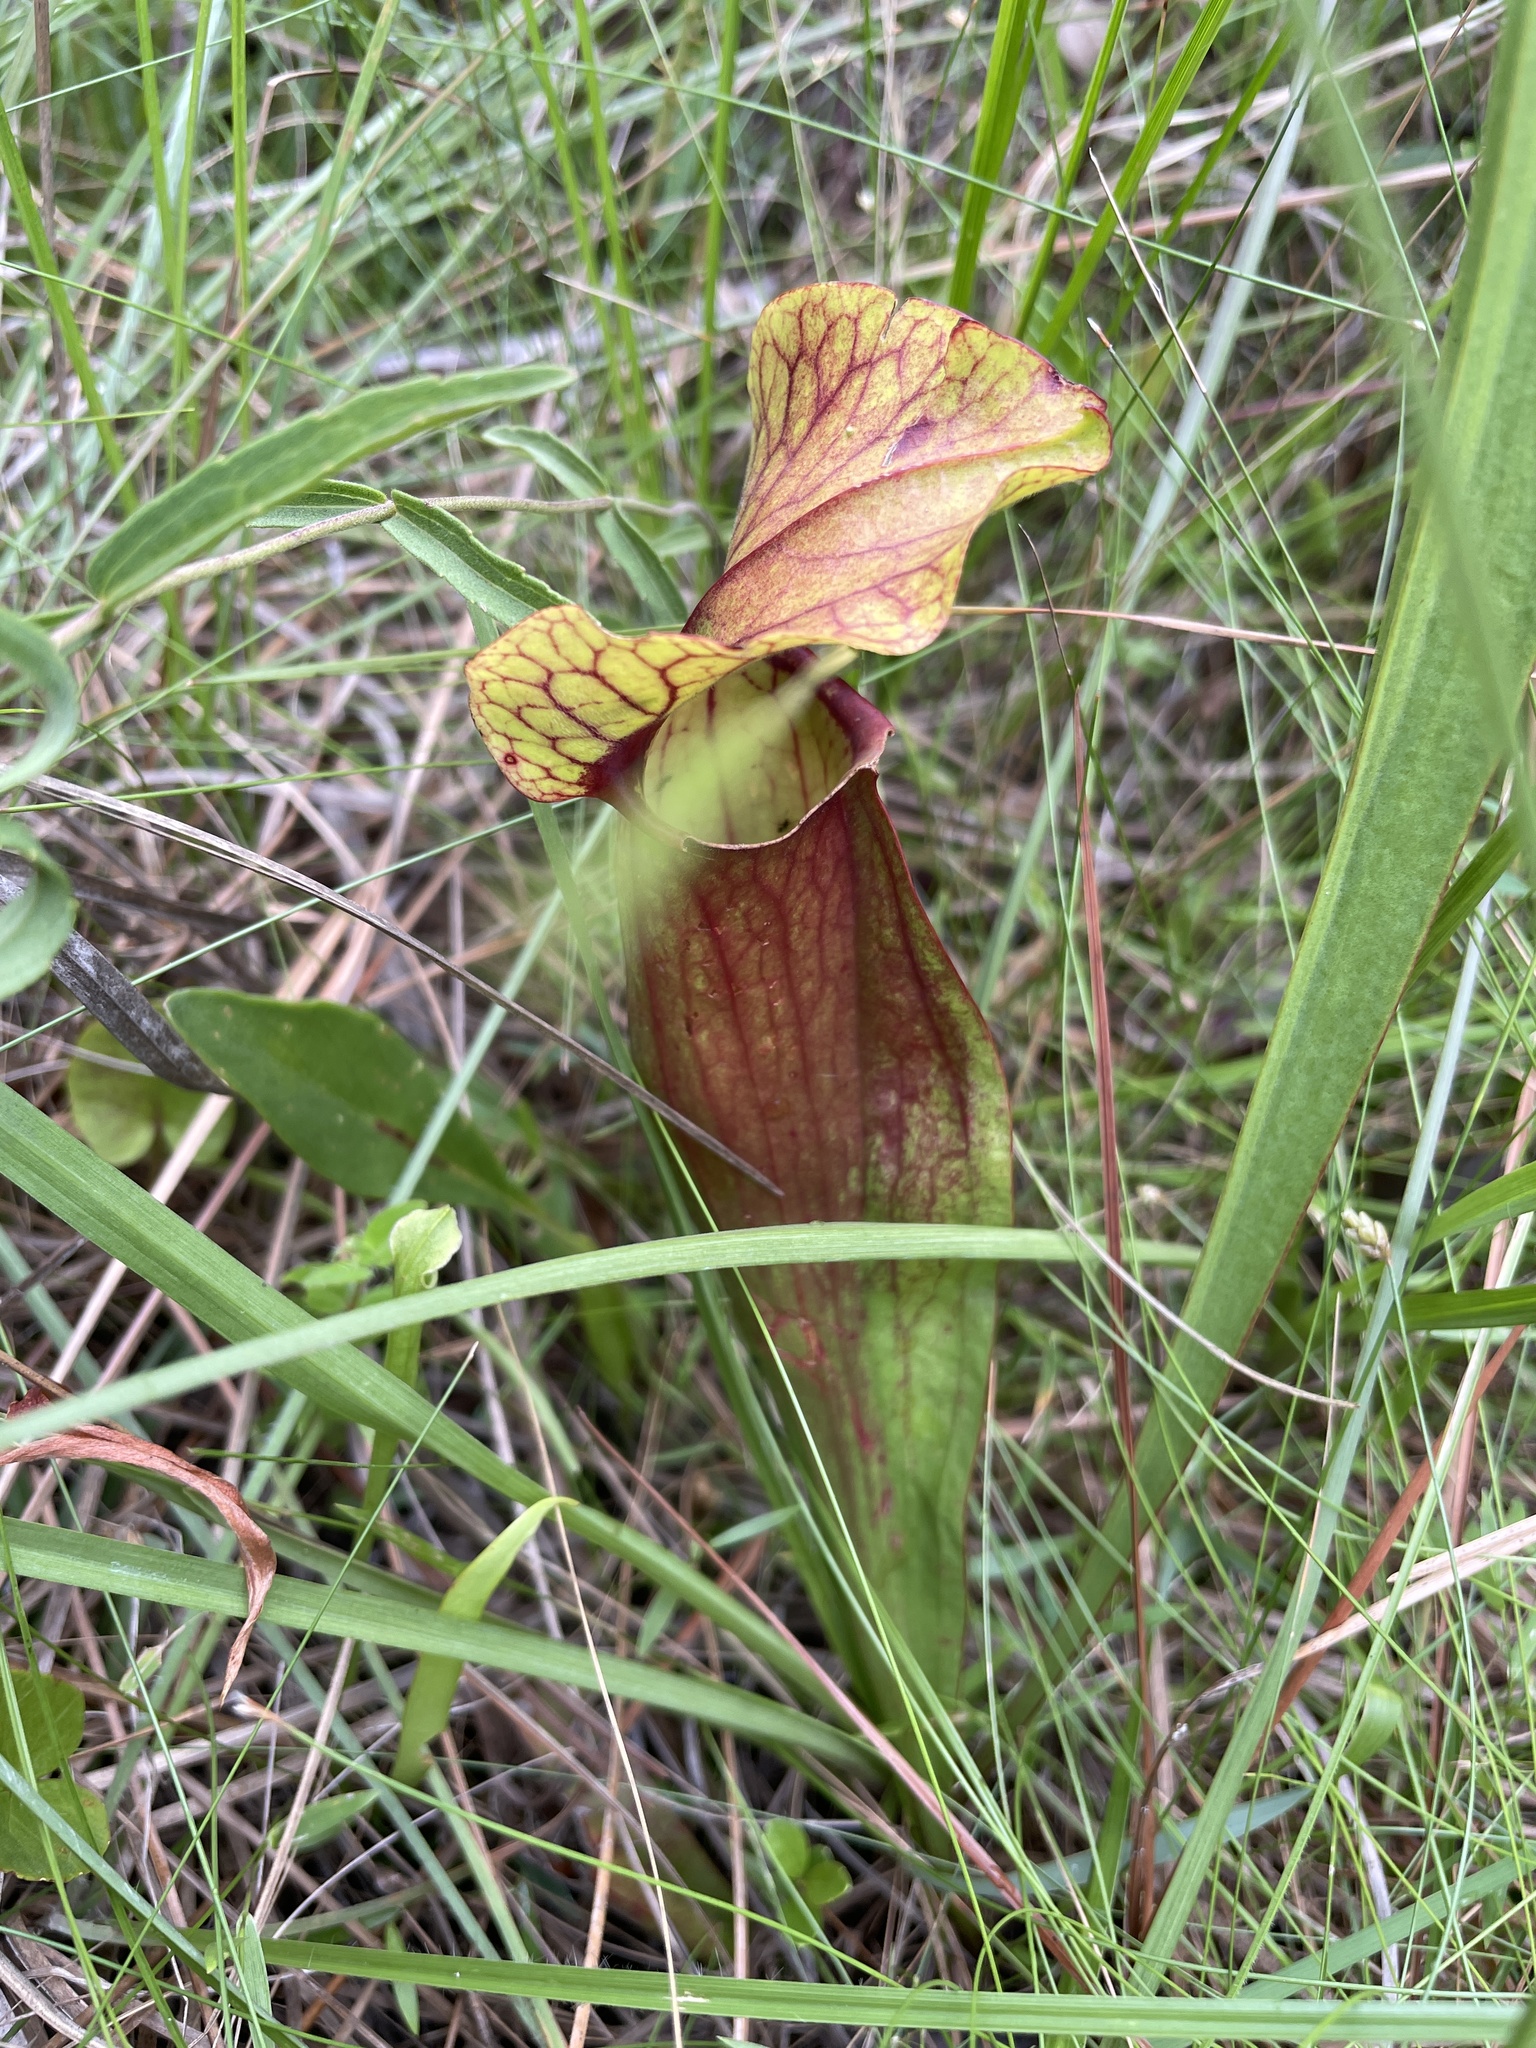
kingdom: Plantae
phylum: Tracheophyta
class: Magnoliopsida
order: Ericales
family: Sarraceniaceae
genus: Sarracenia
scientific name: Sarracenia naczii
